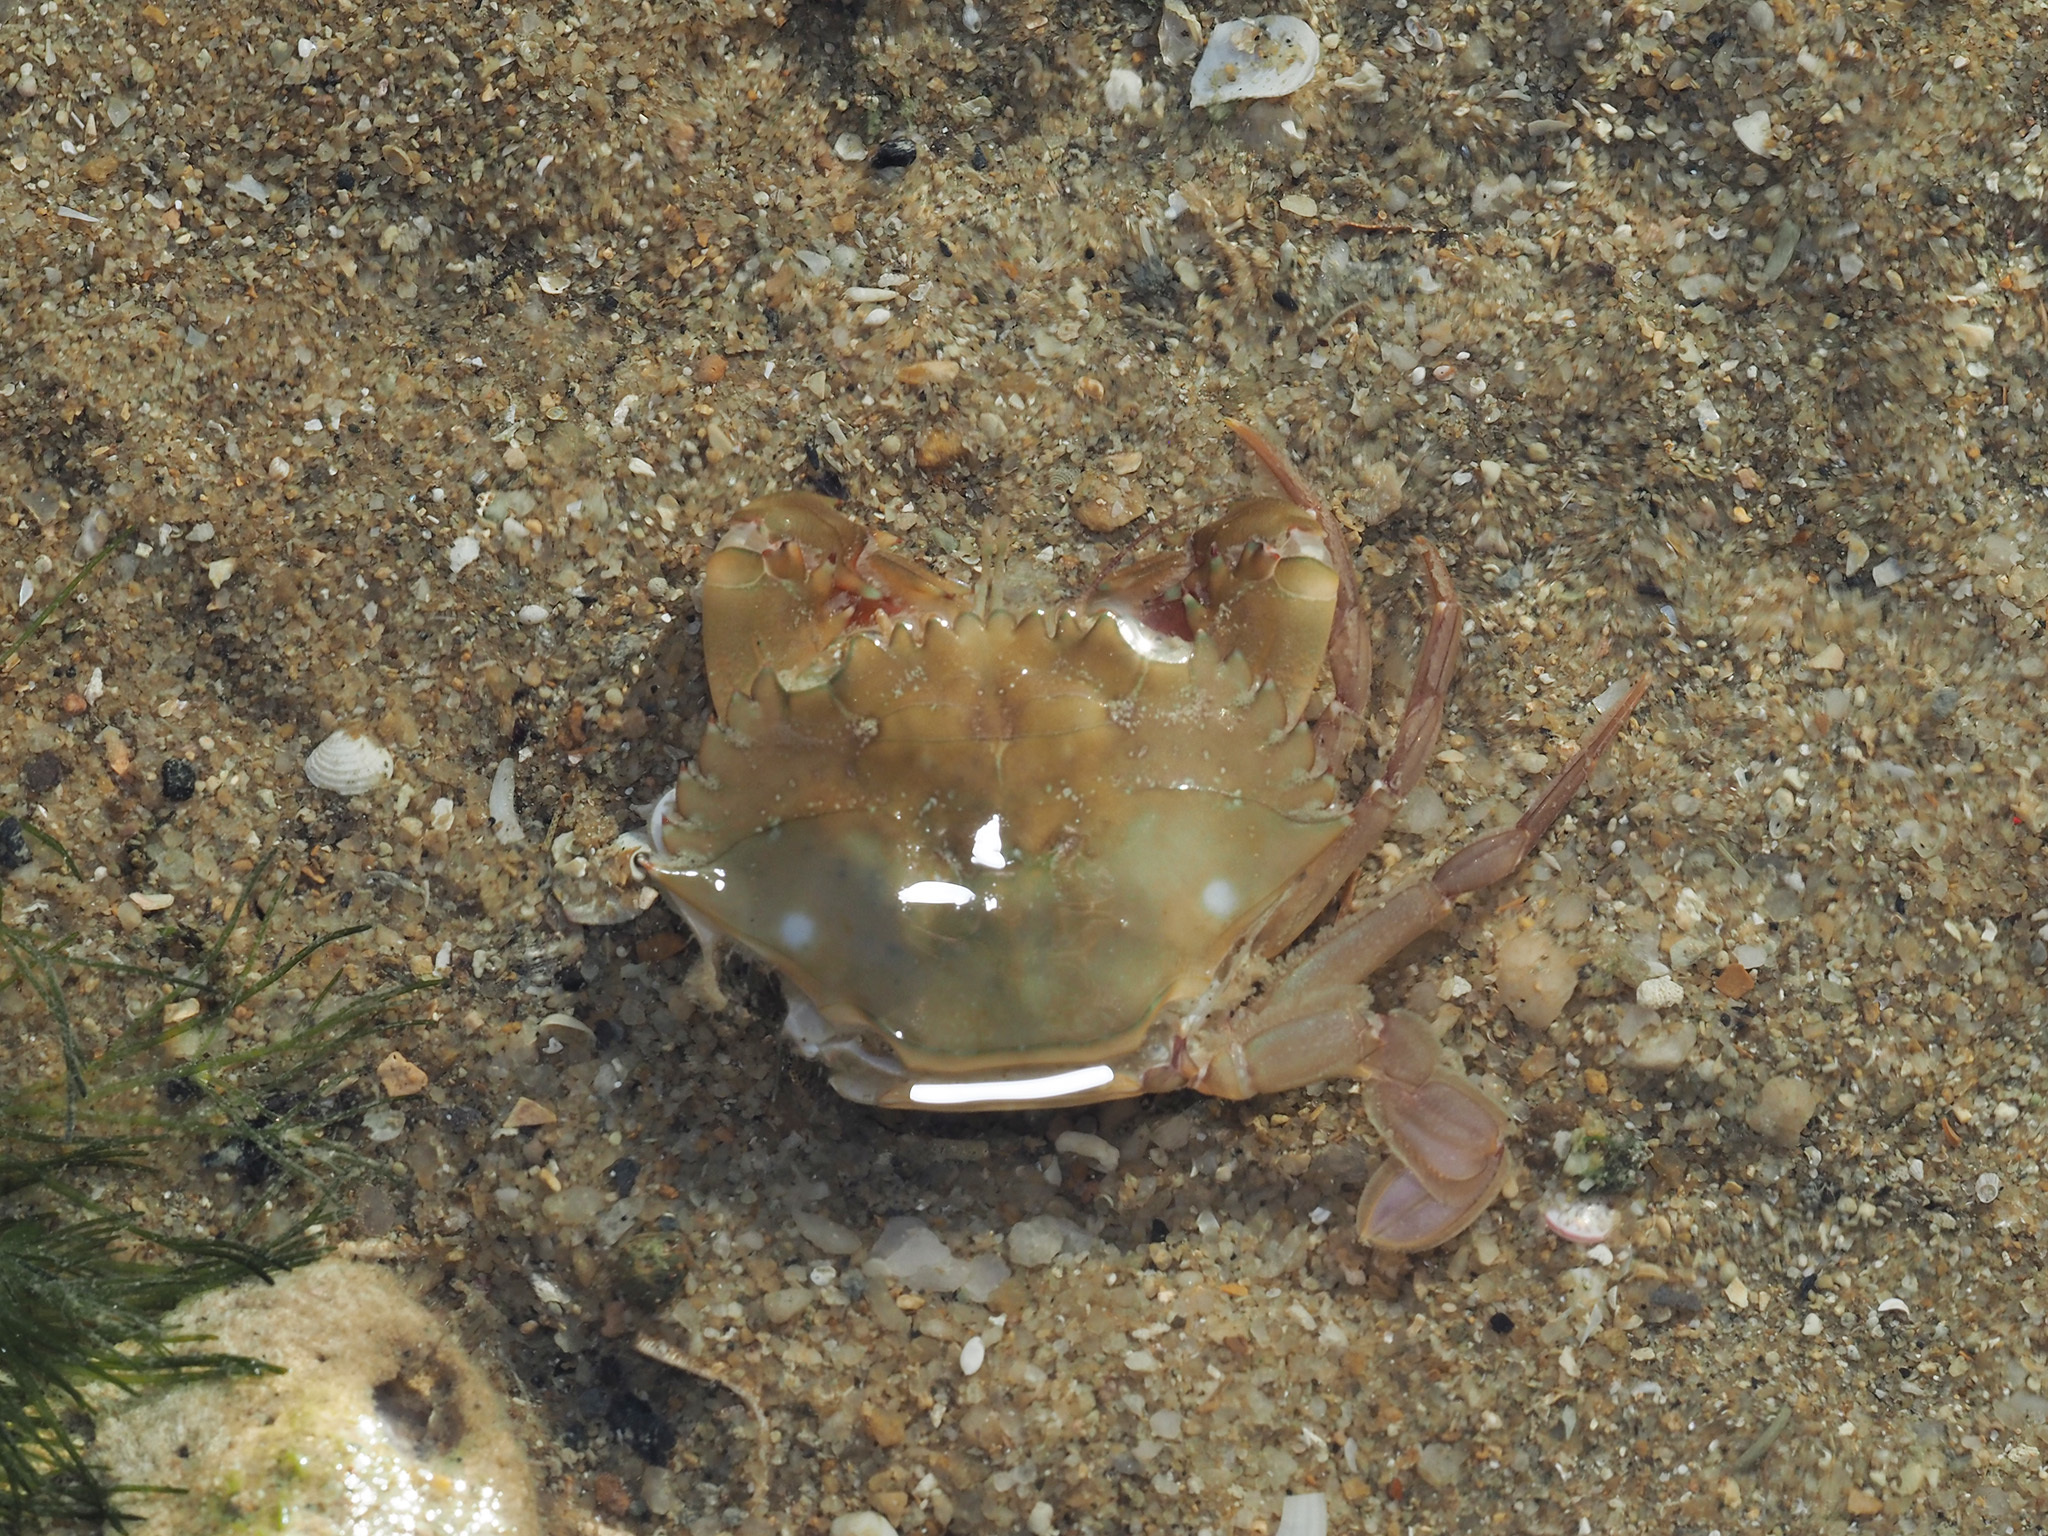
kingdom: Animalia
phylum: Arthropoda
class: Malacostraca
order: Decapoda
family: Portunidae
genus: Charybdis
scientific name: Charybdis hellerii
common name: Spiny hands
